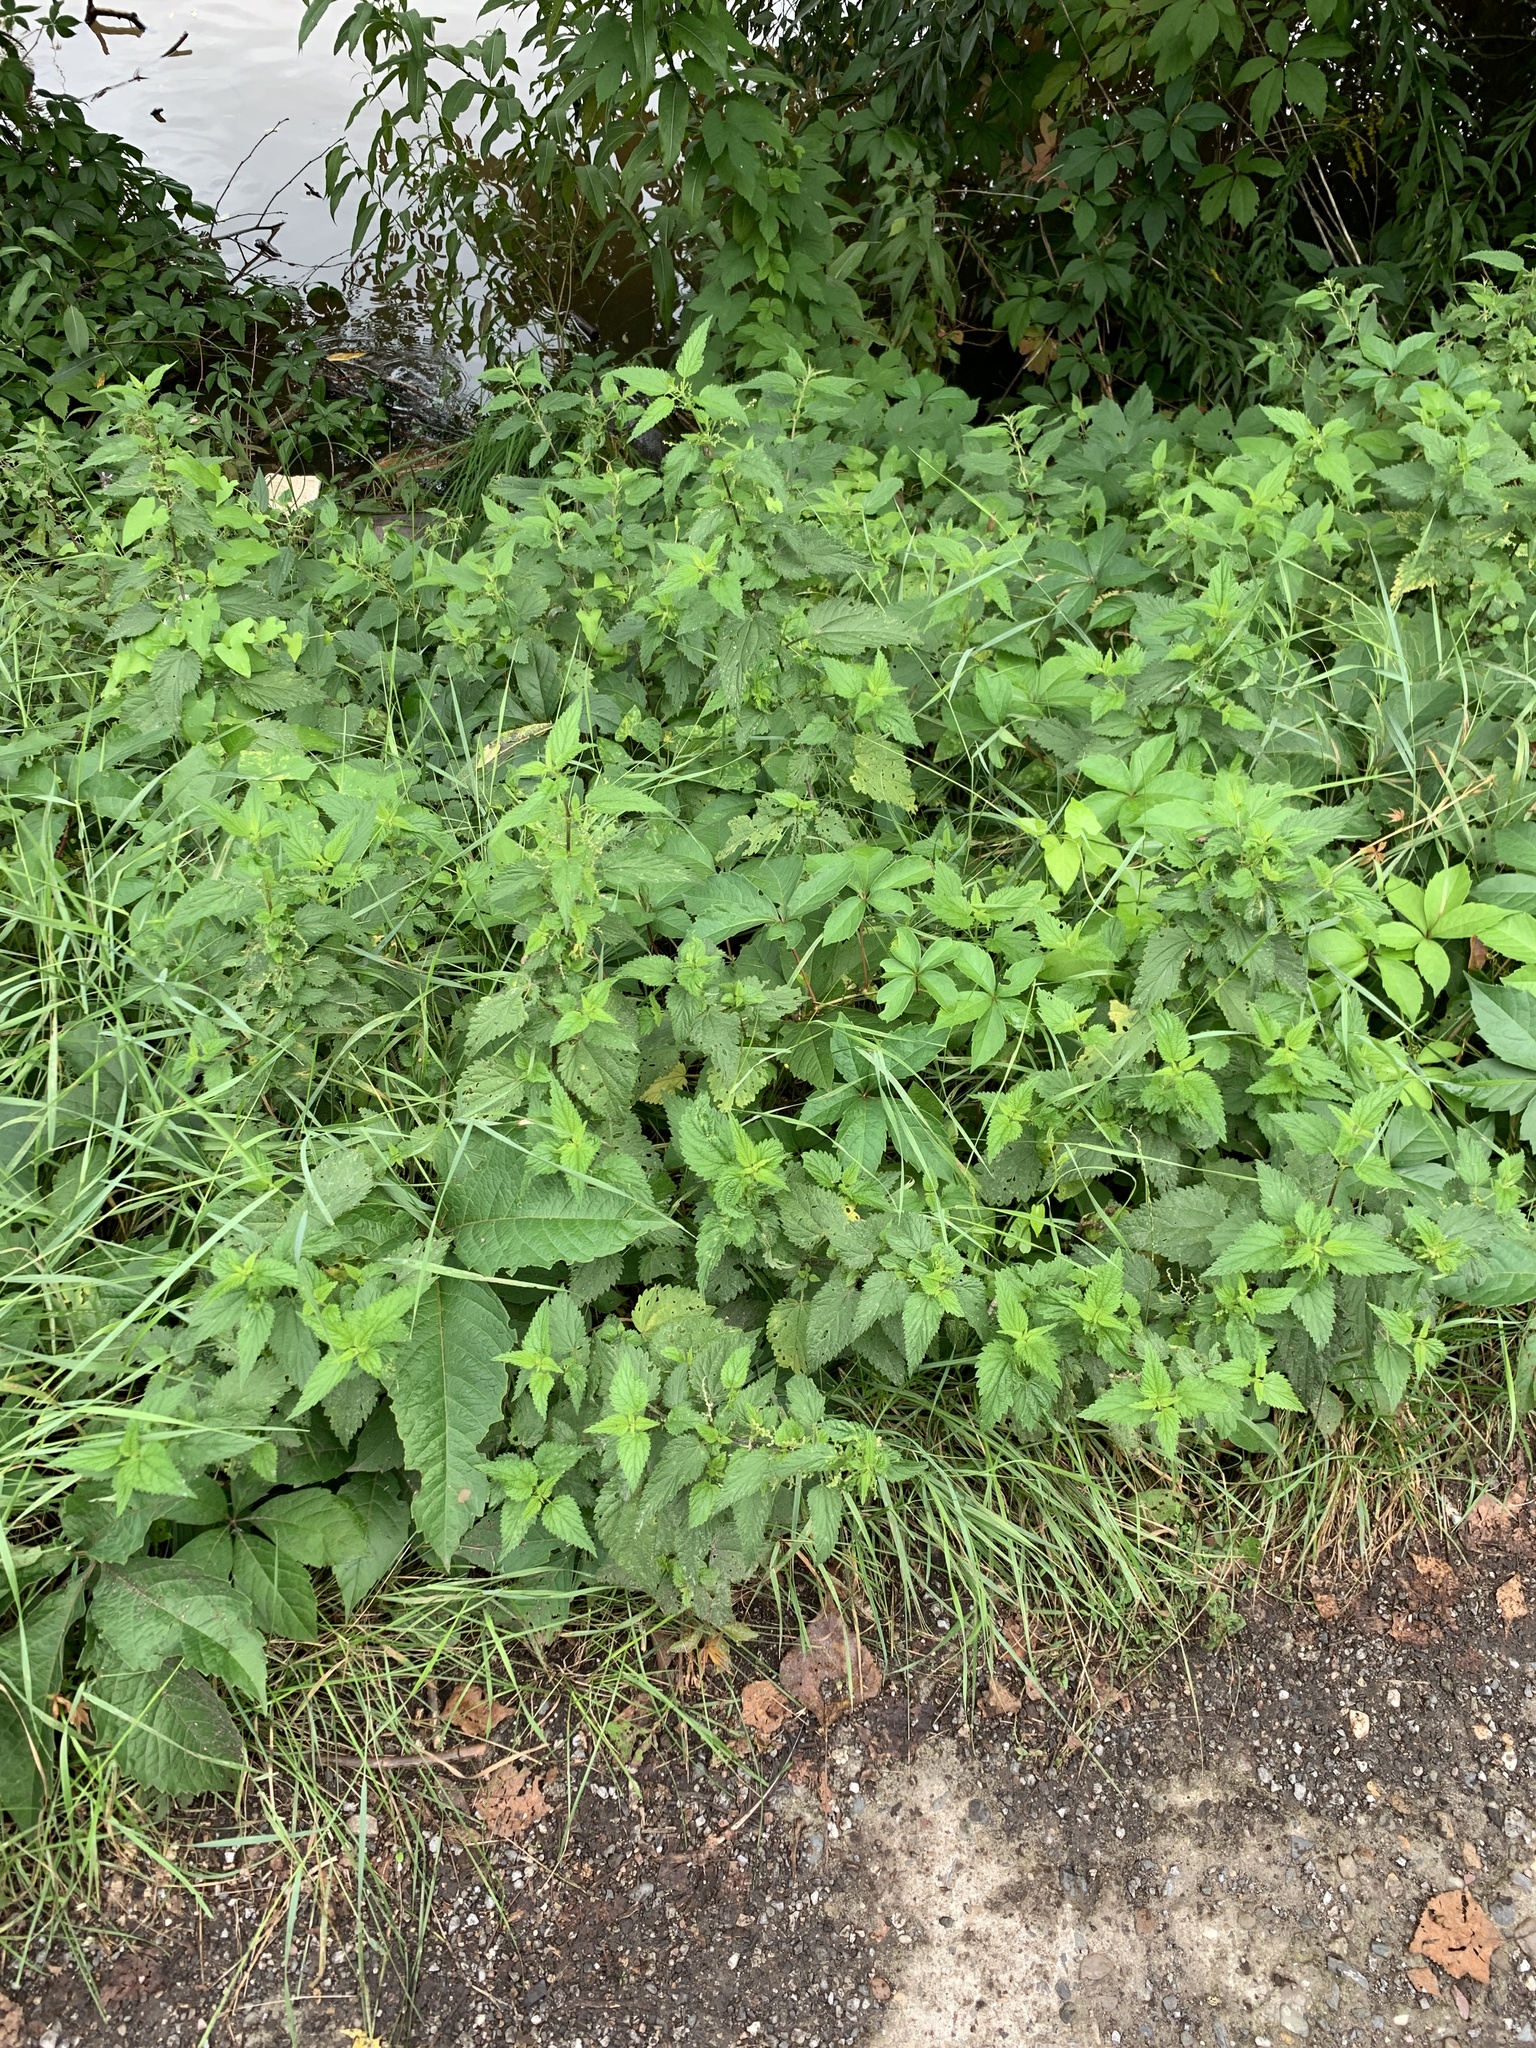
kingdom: Plantae
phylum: Tracheophyta
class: Magnoliopsida
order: Rosales
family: Urticaceae
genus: Urtica
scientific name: Urtica dioica
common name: Common nettle
